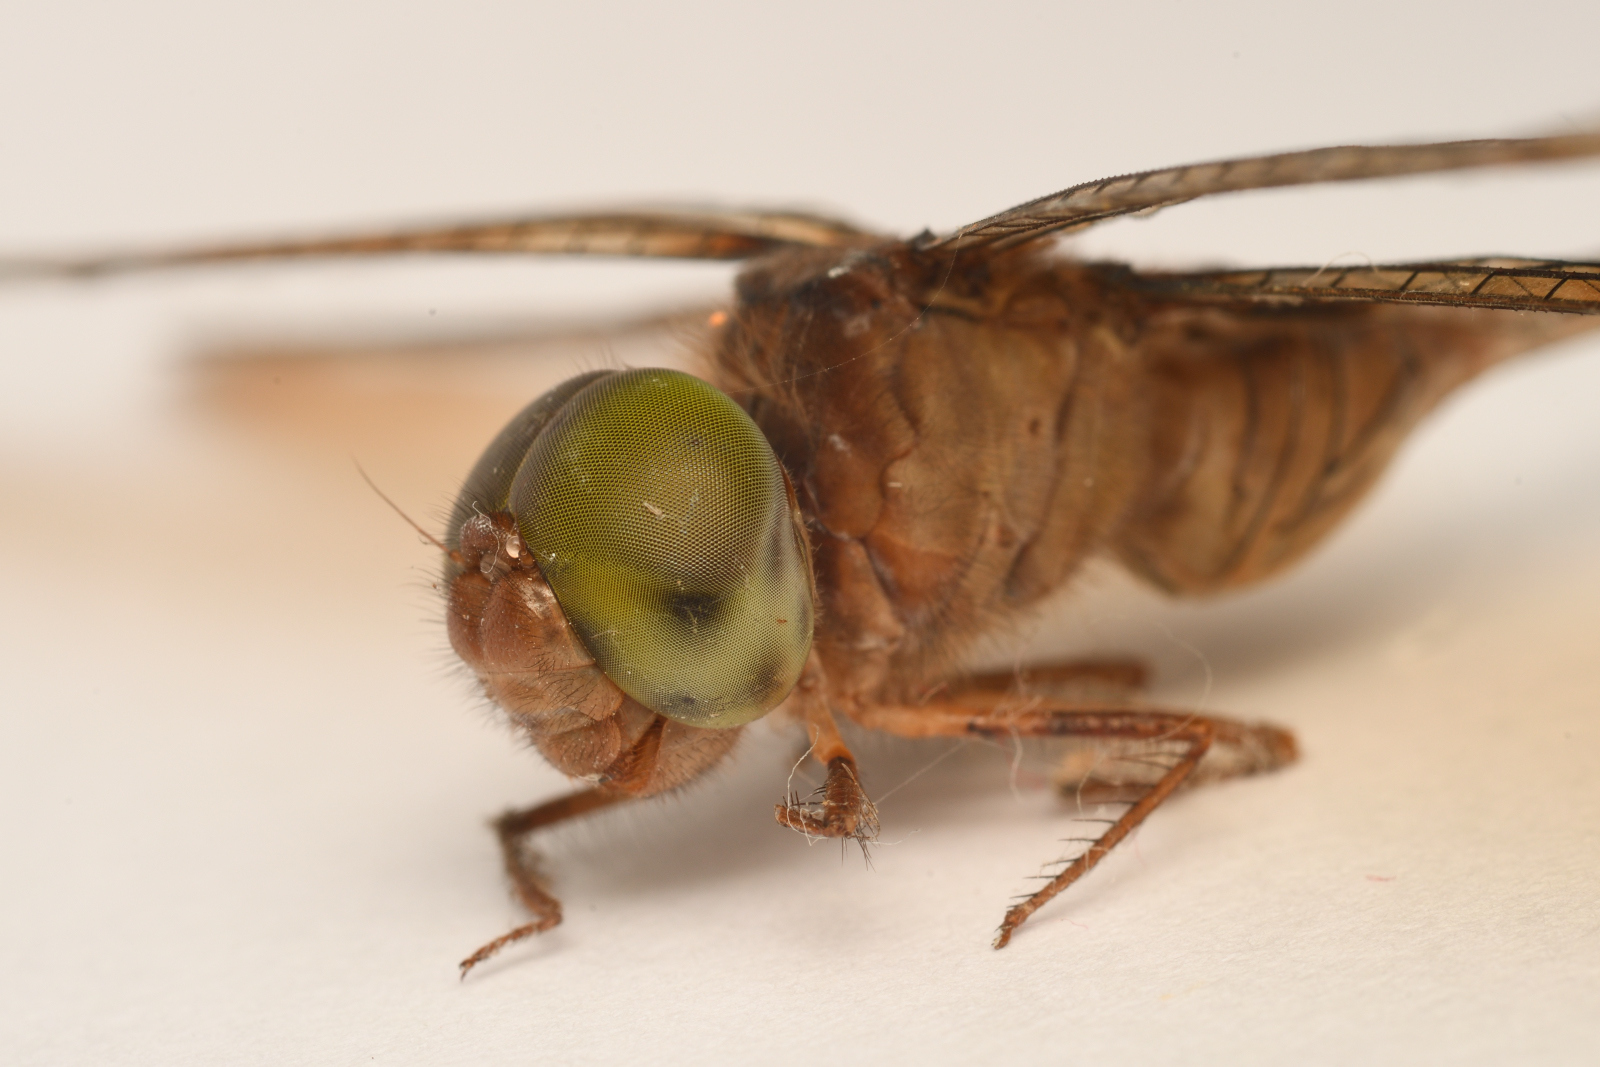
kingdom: Animalia
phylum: Arthropoda
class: Insecta
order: Odonata
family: Libellulidae
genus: Zyxomma
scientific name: Zyxomma petiolatum
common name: Dingy dusk-darter
